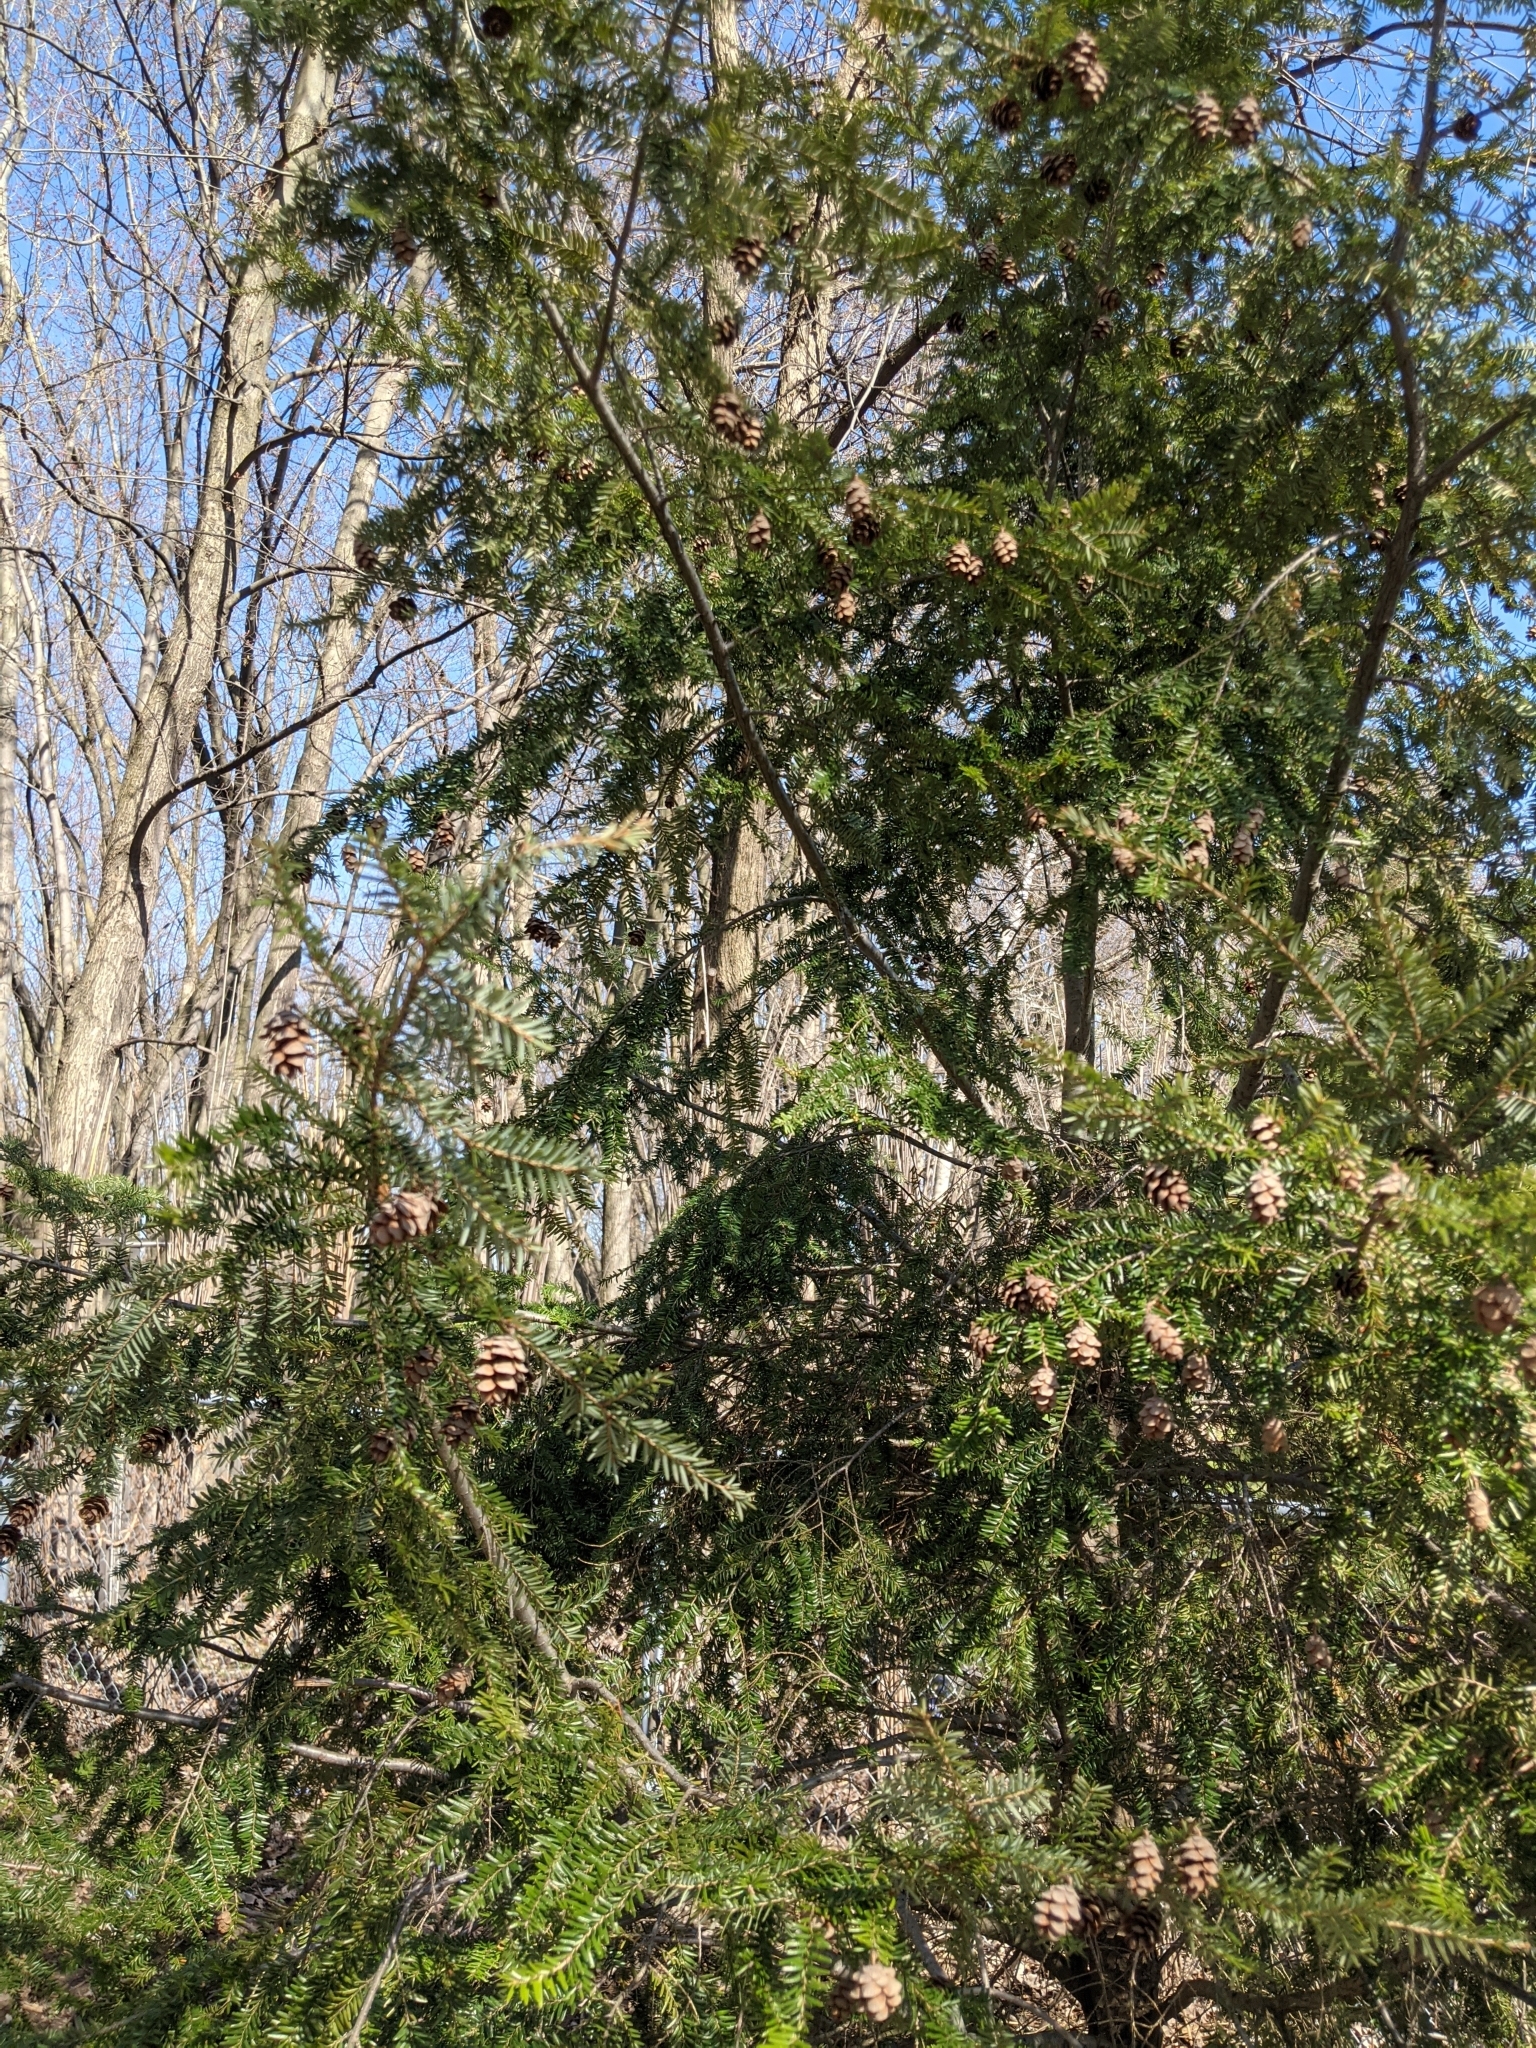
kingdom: Plantae
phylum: Tracheophyta
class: Pinopsida
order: Pinales
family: Pinaceae
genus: Tsuga
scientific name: Tsuga canadensis
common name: Eastern hemlock
